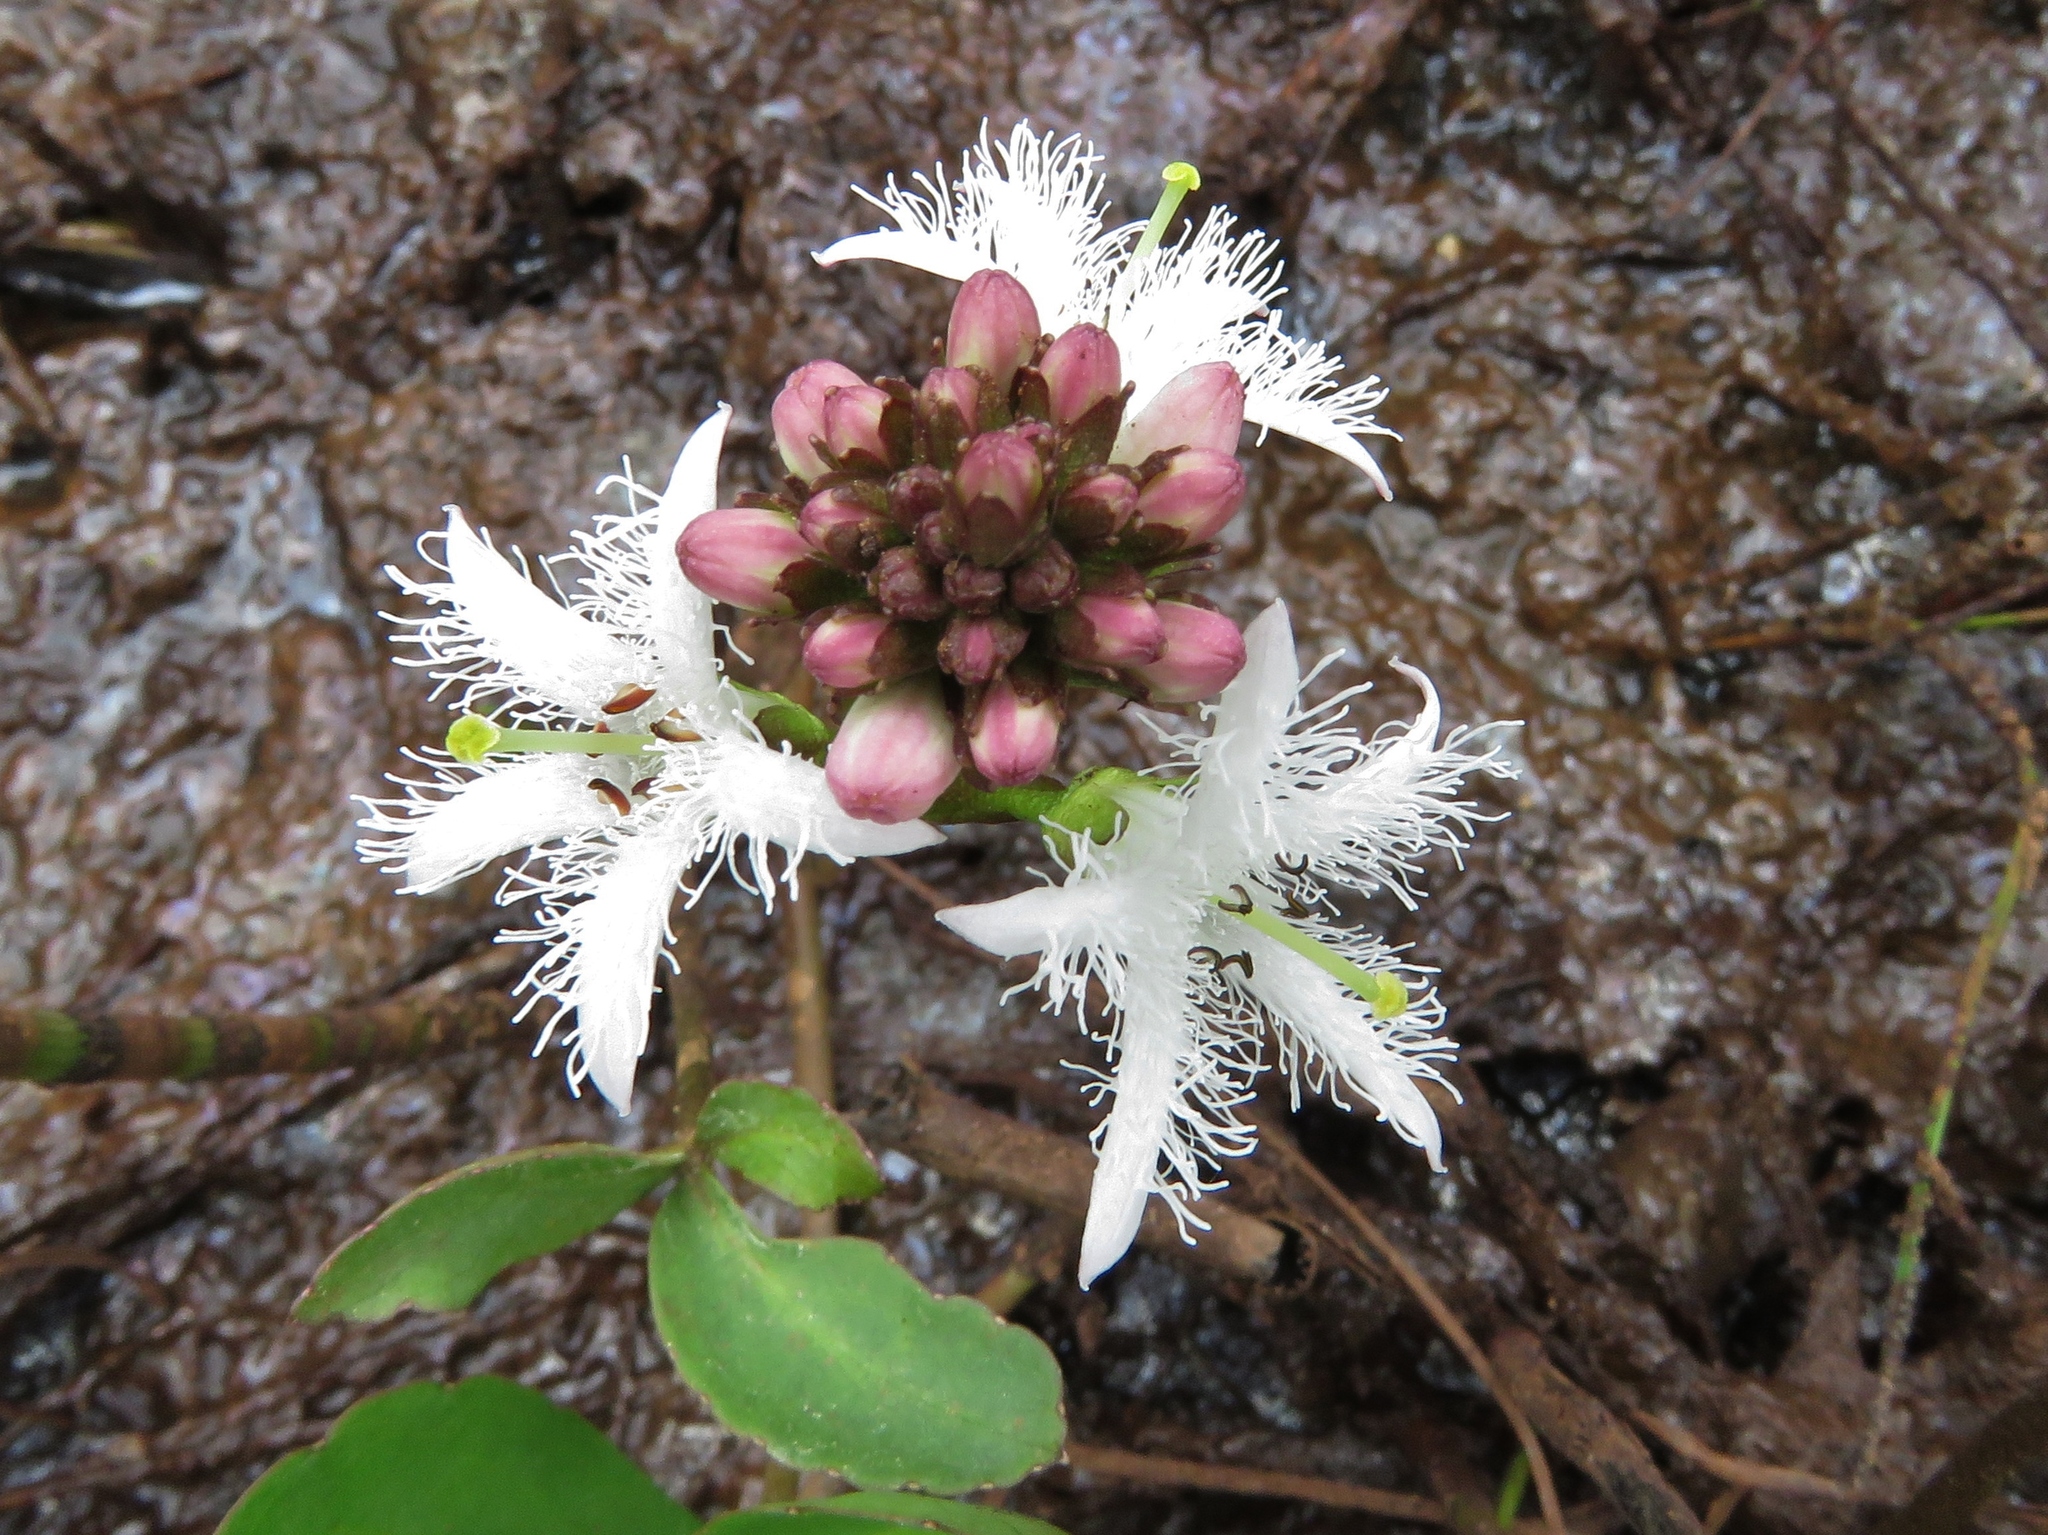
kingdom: Plantae
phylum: Tracheophyta
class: Magnoliopsida
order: Asterales
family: Menyanthaceae
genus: Menyanthes
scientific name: Menyanthes trifoliata
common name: Bogbean
